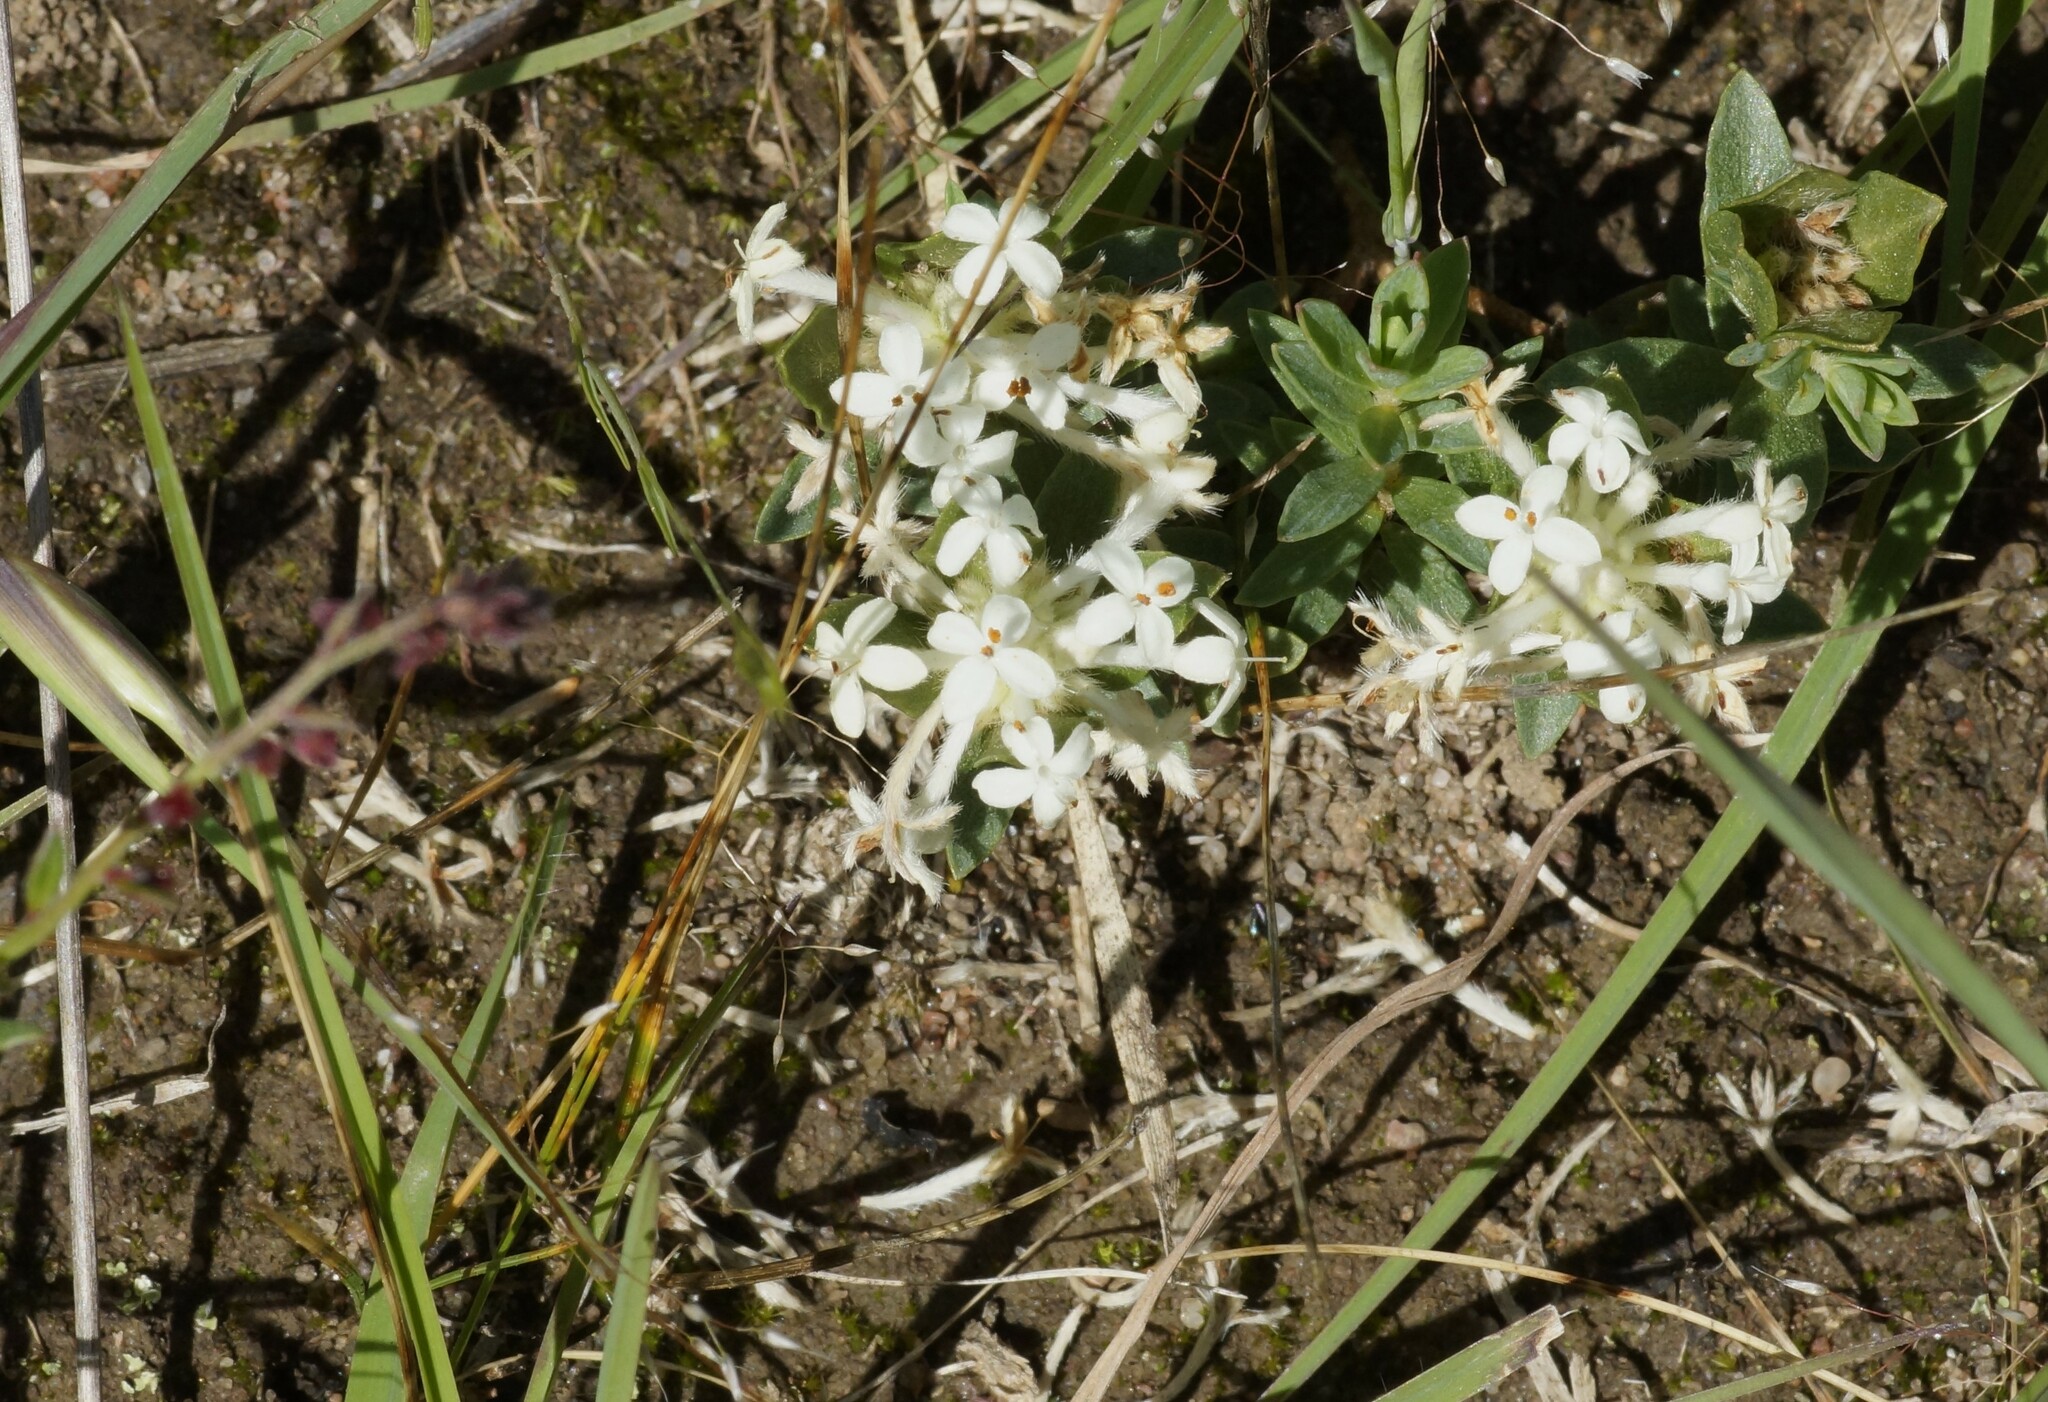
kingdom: Plantae
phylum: Tracheophyta
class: Magnoliopsida
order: Malvales
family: Thymelaeaceae
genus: Pimelea
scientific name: Pimelea humilis
